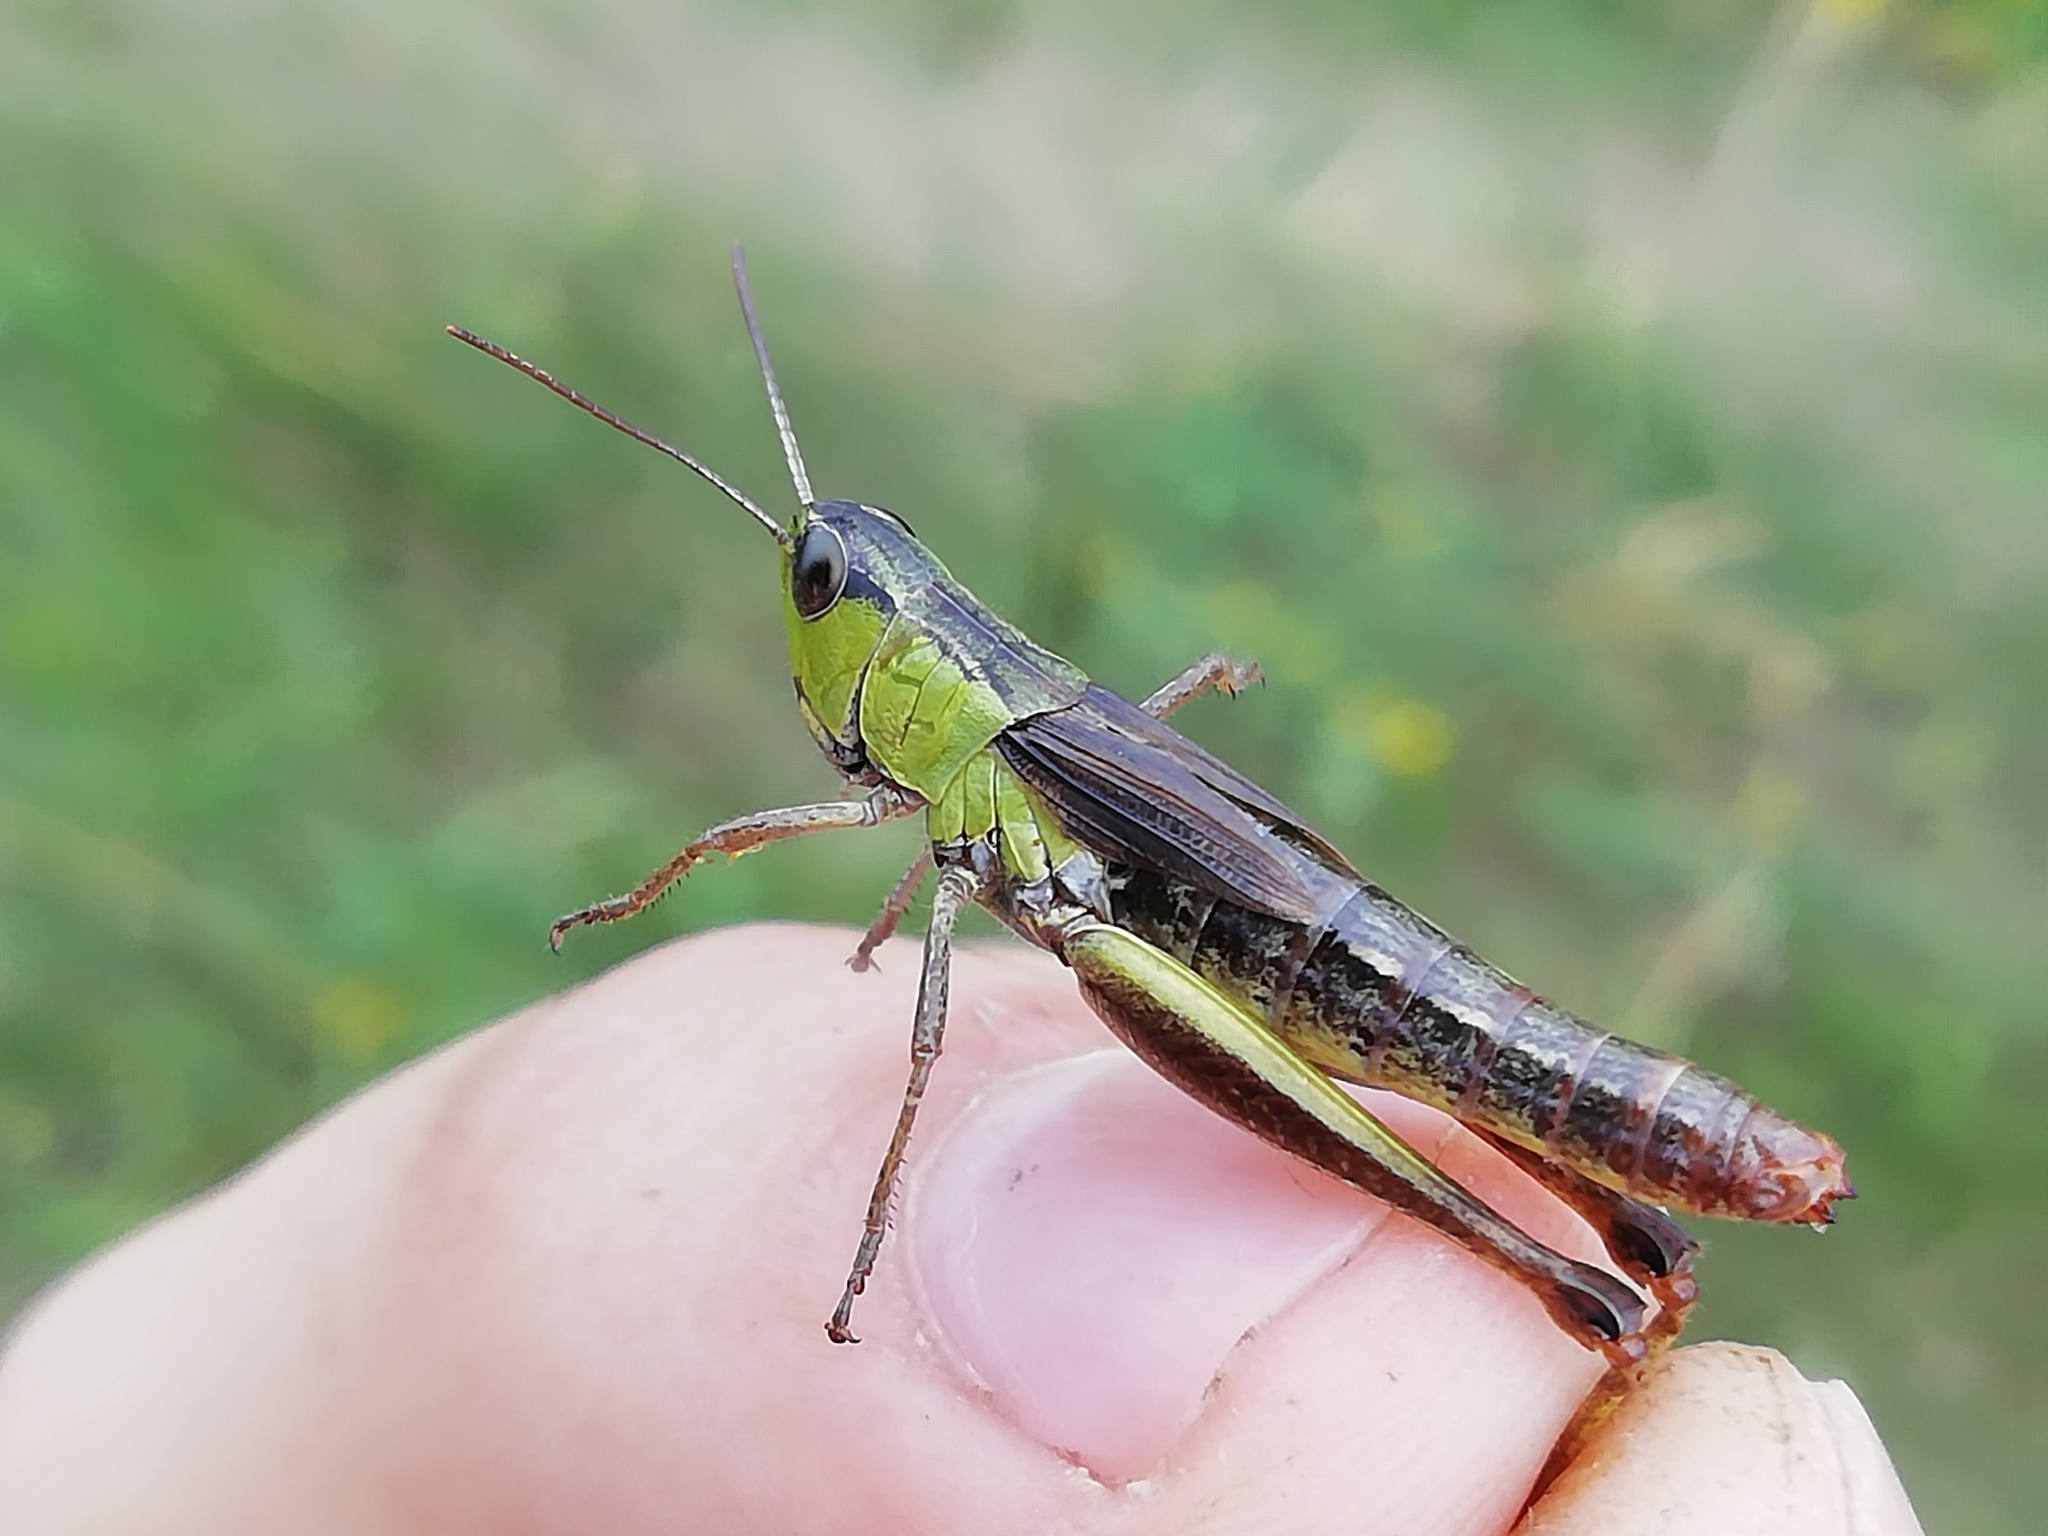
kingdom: Animalia
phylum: Arthropoda
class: Insecta
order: Orthoptera
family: Acrididae
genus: Pseudochorthippus
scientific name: Pseudochorthippus parallelus
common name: Meadow grasshopper
